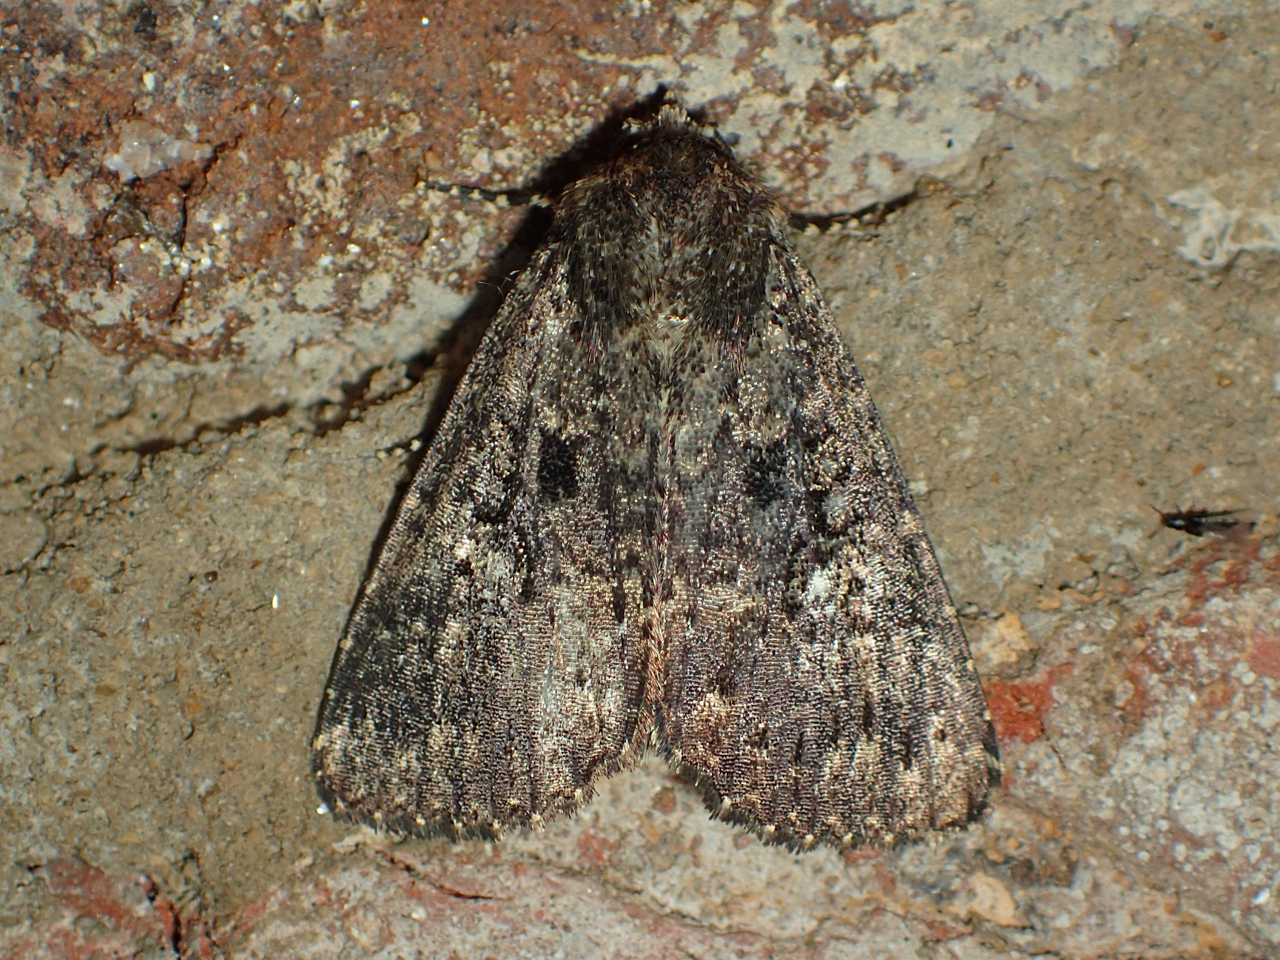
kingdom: Animalia
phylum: Arthropoda
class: Insecta
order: Lepidoptera
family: Noctuidae
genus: Condica
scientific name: Condica vecors
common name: Dusky groundling
